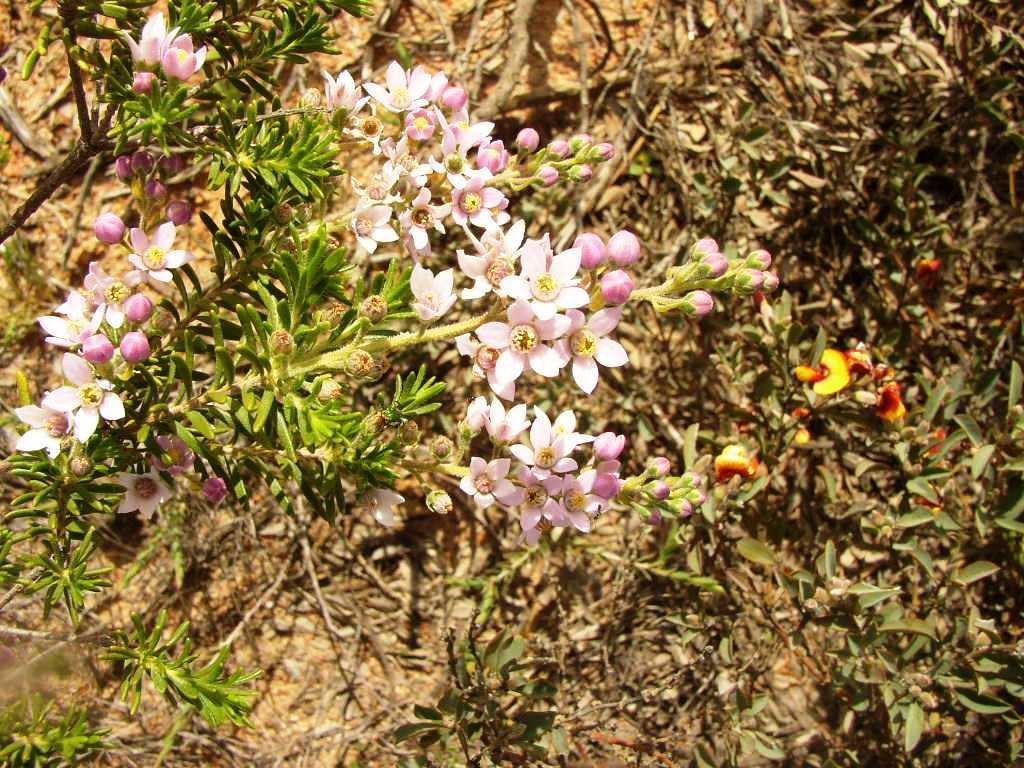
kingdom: Plantae
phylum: Tracheophyta
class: Magnoliopsida
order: Sapindales
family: Rutaceae
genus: Philotheca
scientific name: Philotheca spicata
